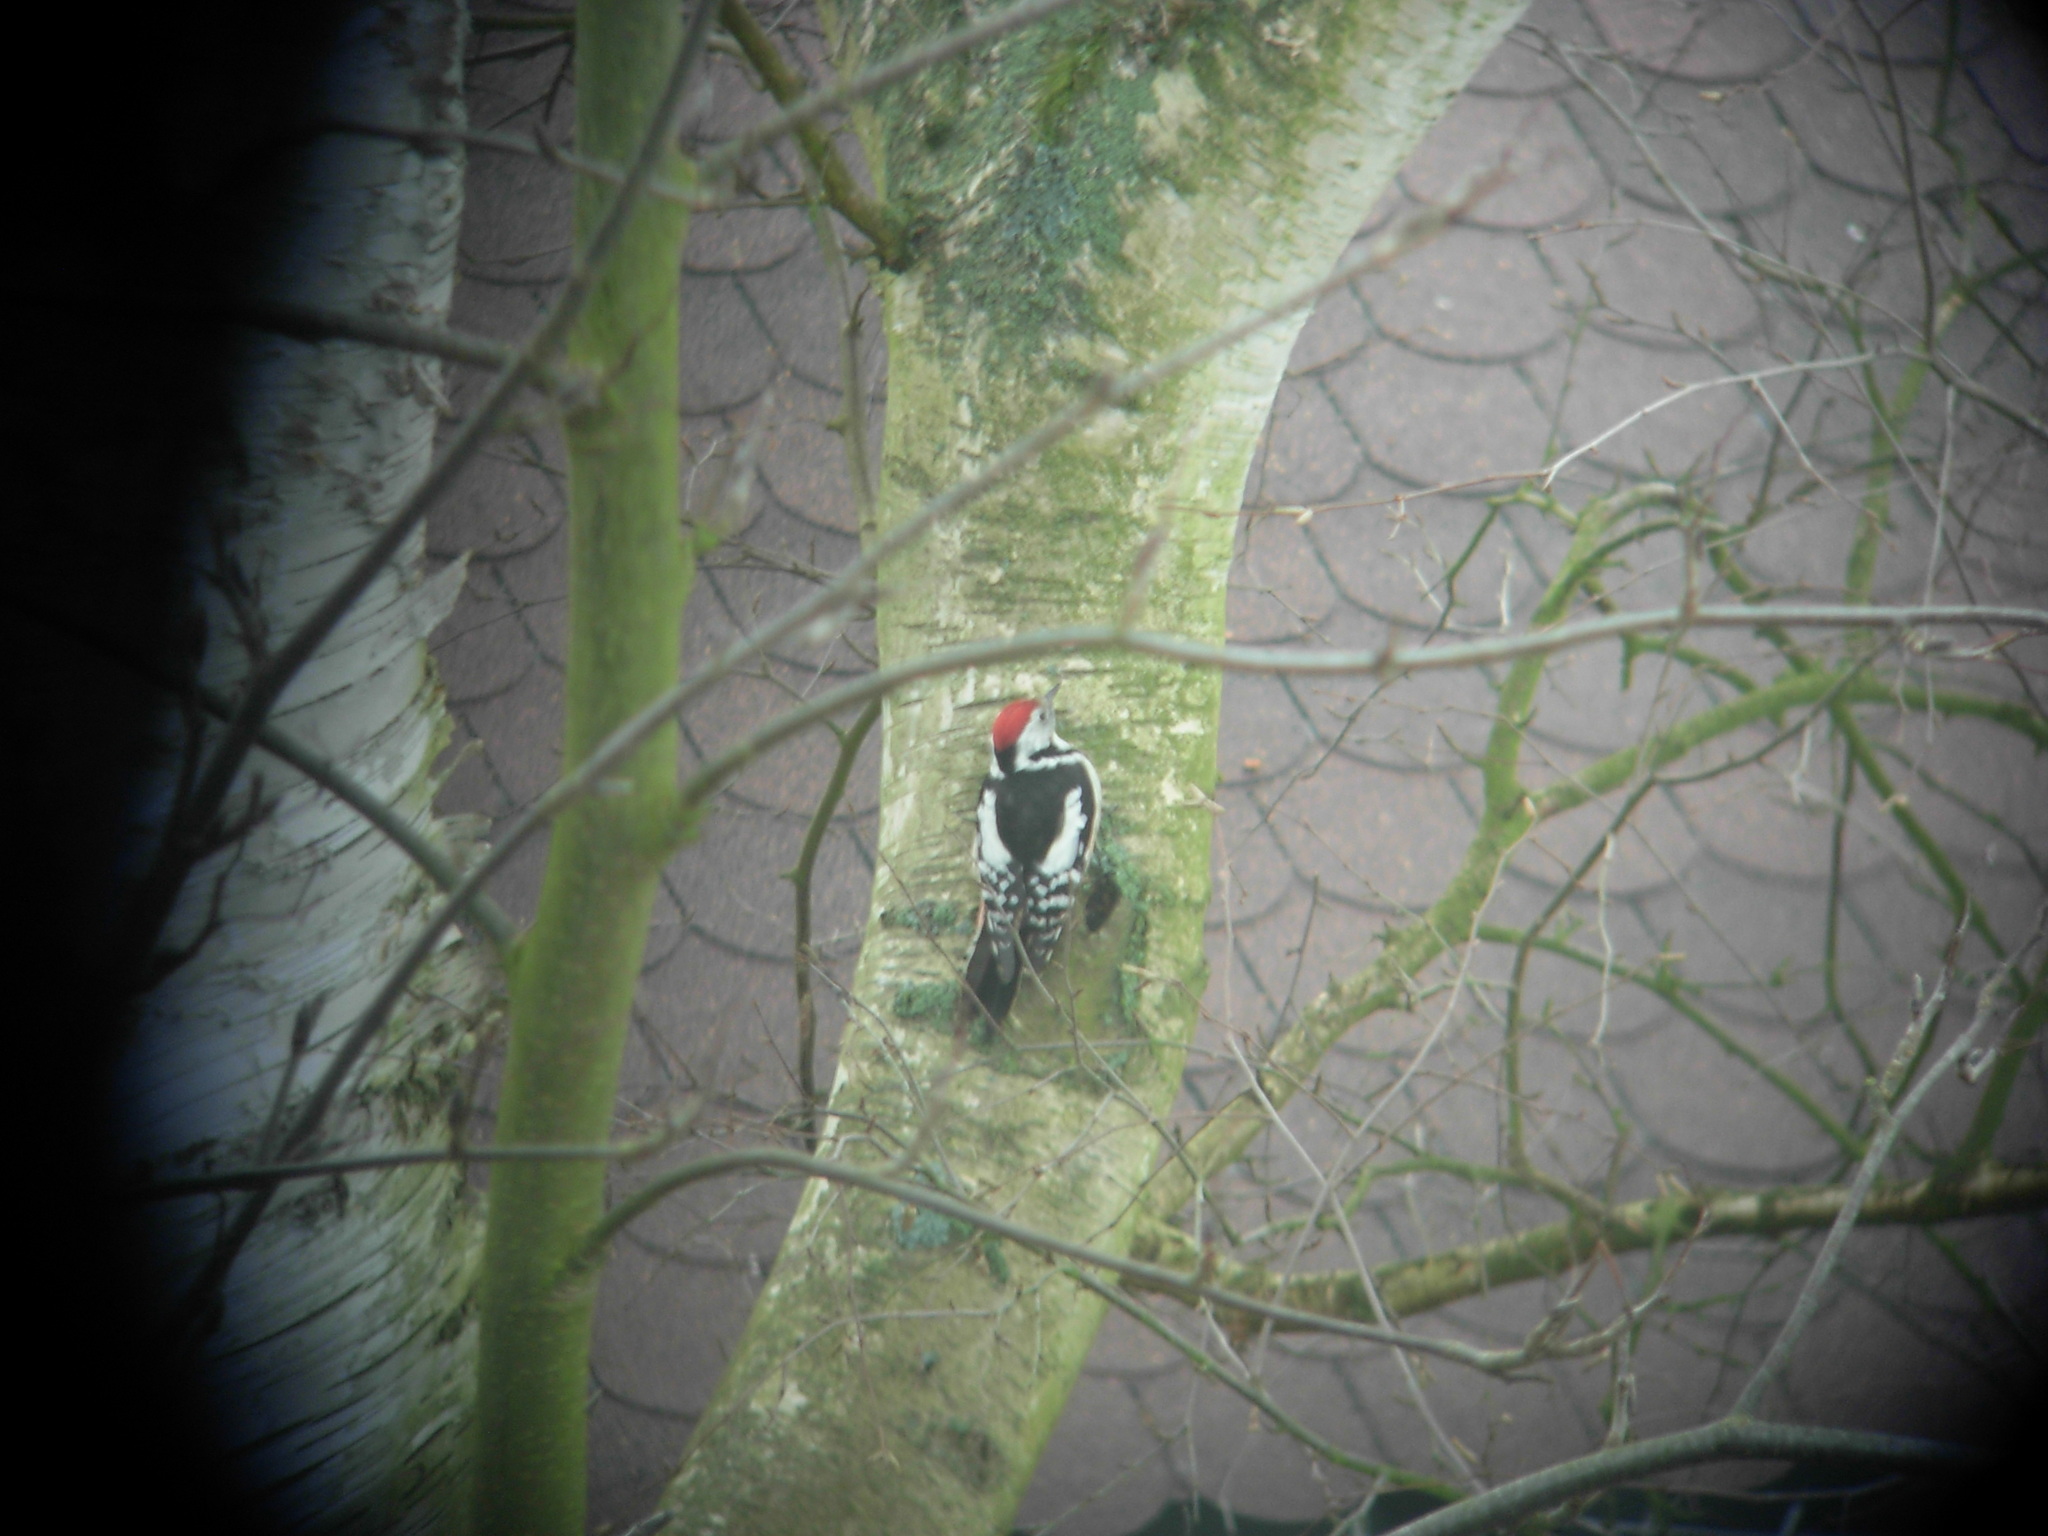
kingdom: Animalia
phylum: Chordata
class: Aves
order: Piciformes
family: Picidae
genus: Dendrocoptes
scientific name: Dendrocoptes medius
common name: Middle spotted woodpecker
